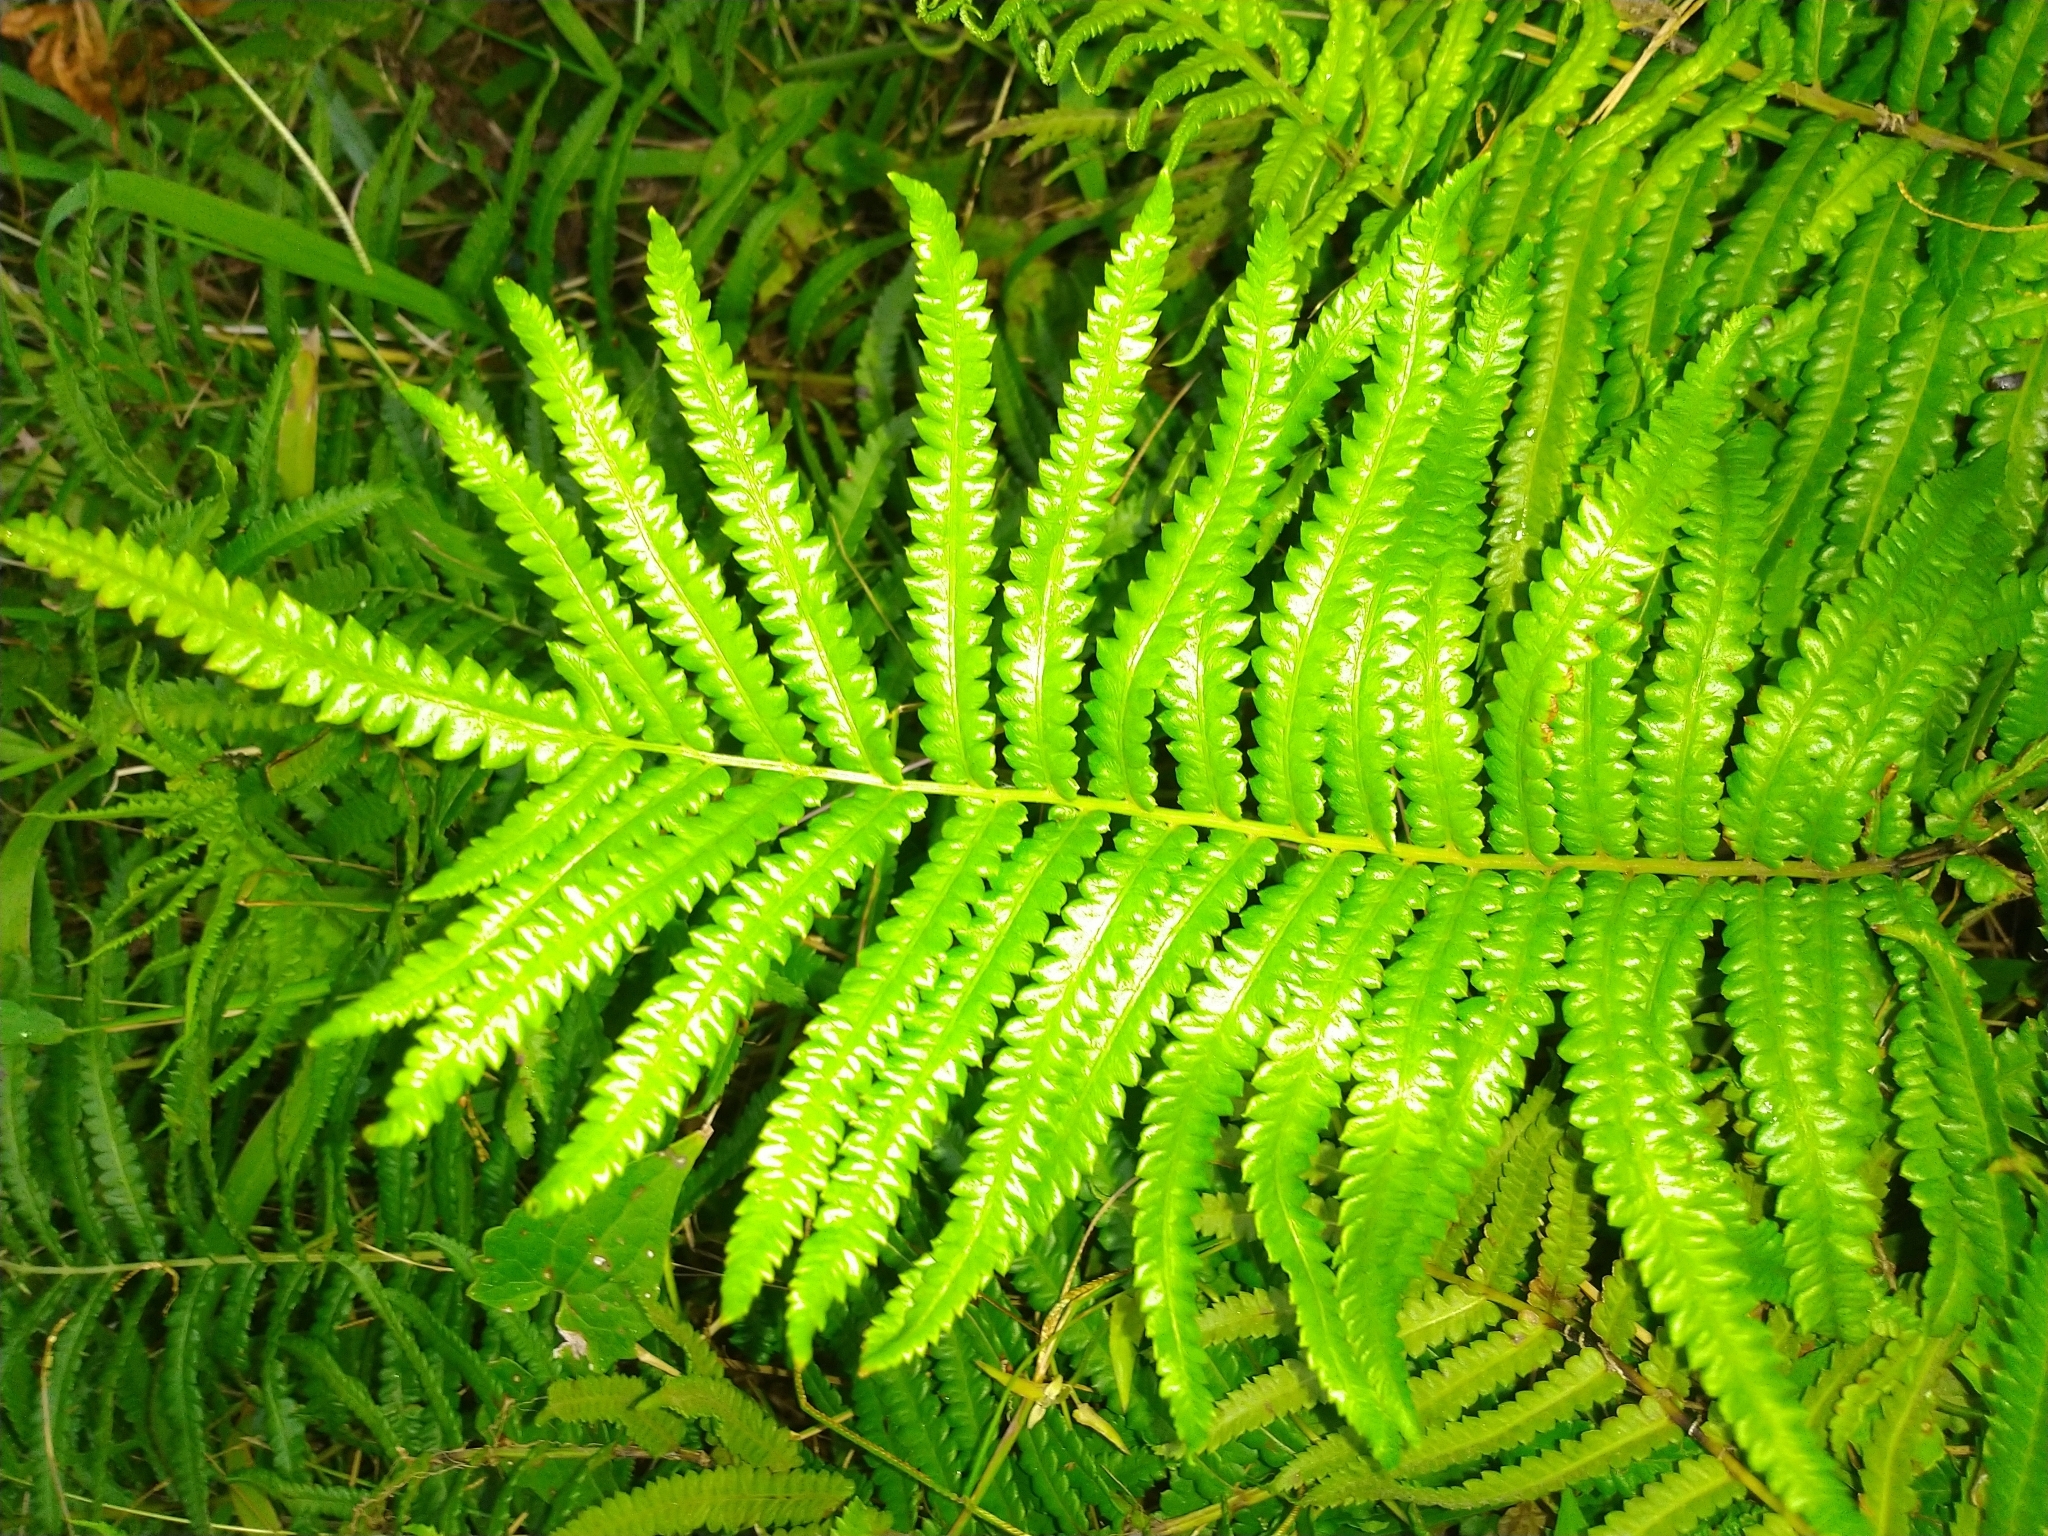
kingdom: Plantae
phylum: Tracheophyta
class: Polypodiopsida
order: Polypodiales
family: Thelypteridaceae
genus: Cyclosorus
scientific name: Cyclosorus interruptus
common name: Neke fern
